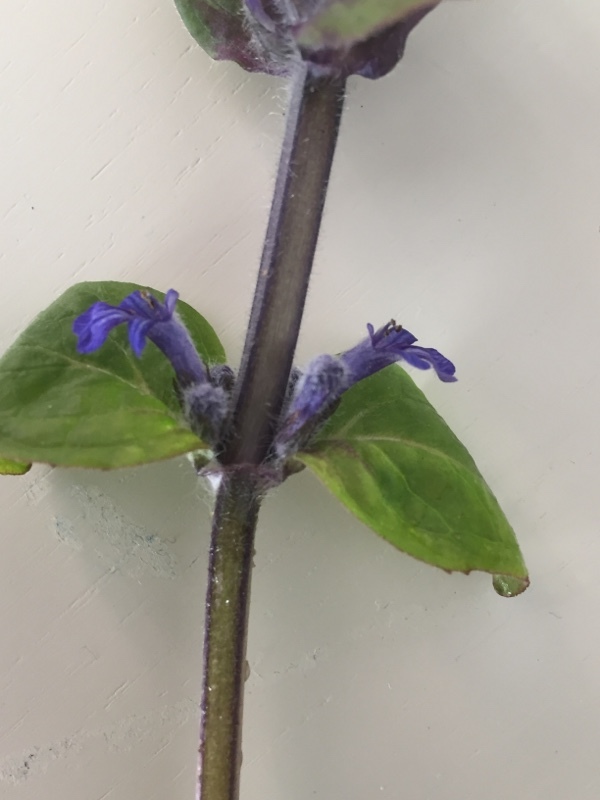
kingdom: Plantae
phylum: Tracheophyta
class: Magnoliopsida
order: Lamiales
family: Lamiaceae
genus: Ajuga
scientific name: Ajuga reptans
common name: Bugle
